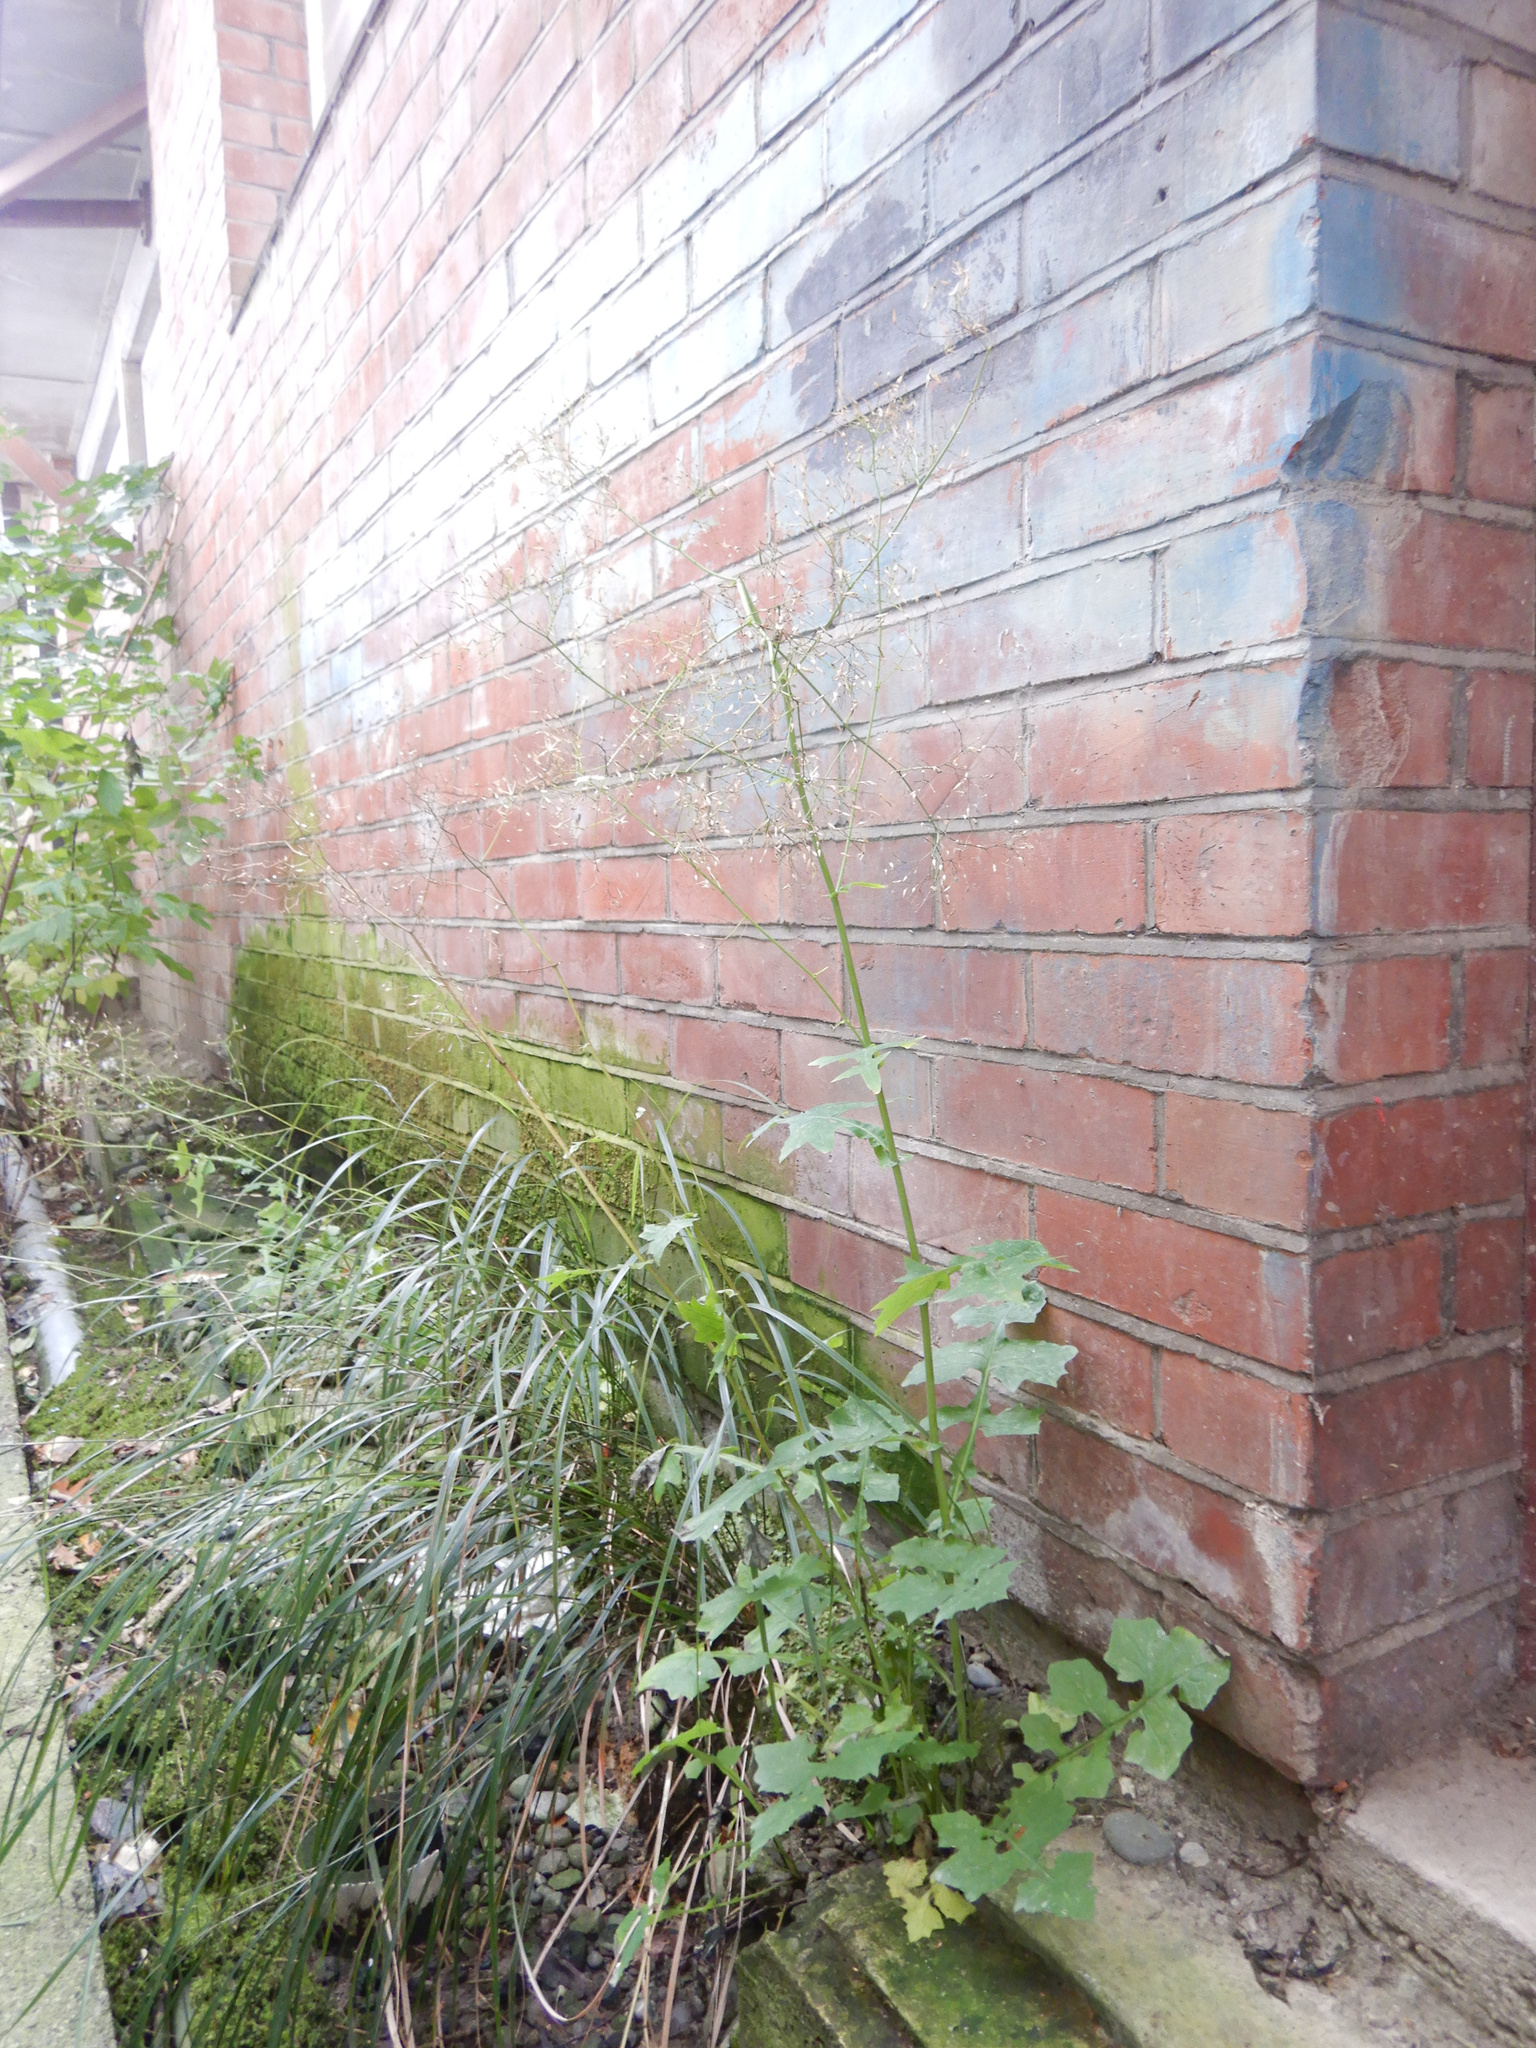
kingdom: Plantae
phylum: Tracheophyta
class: Magnoliopsida
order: Asterales
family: Asteraceae
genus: Mycelis
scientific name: Mycelis muralis
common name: Wall lettuce
